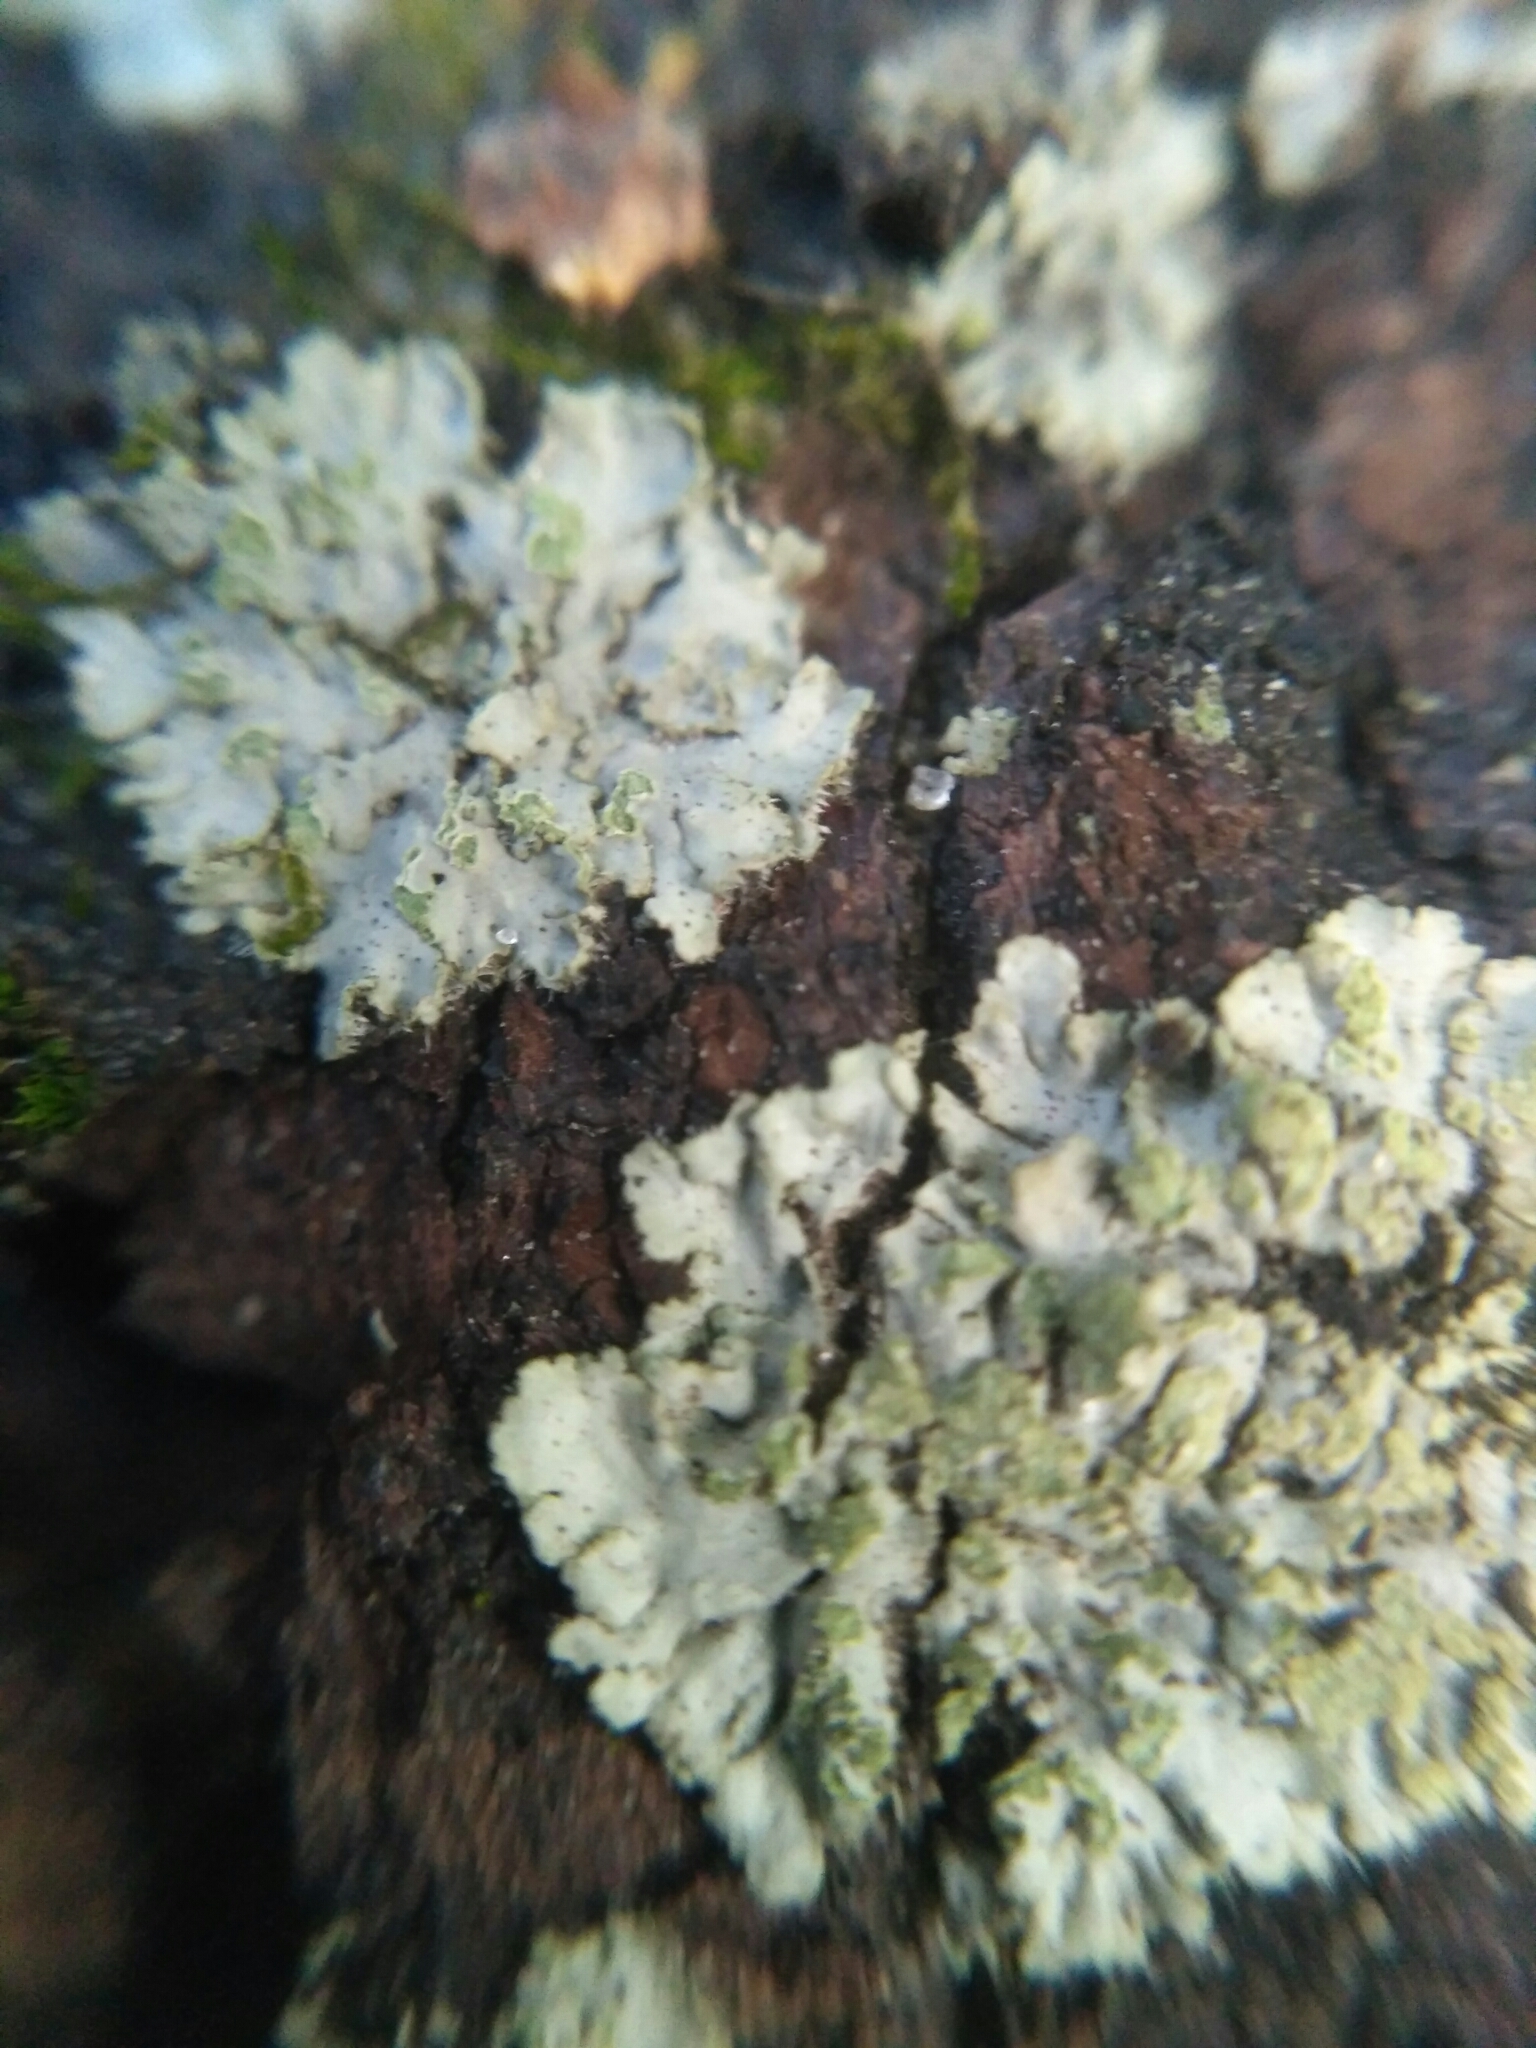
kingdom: Fungi
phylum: Ascomycota
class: Lecanoromycetes
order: Caliciales
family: Physciaceae
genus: Phaeophyscia
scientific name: Phaeophyscia orbicularis
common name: Mealy shadow lichen
